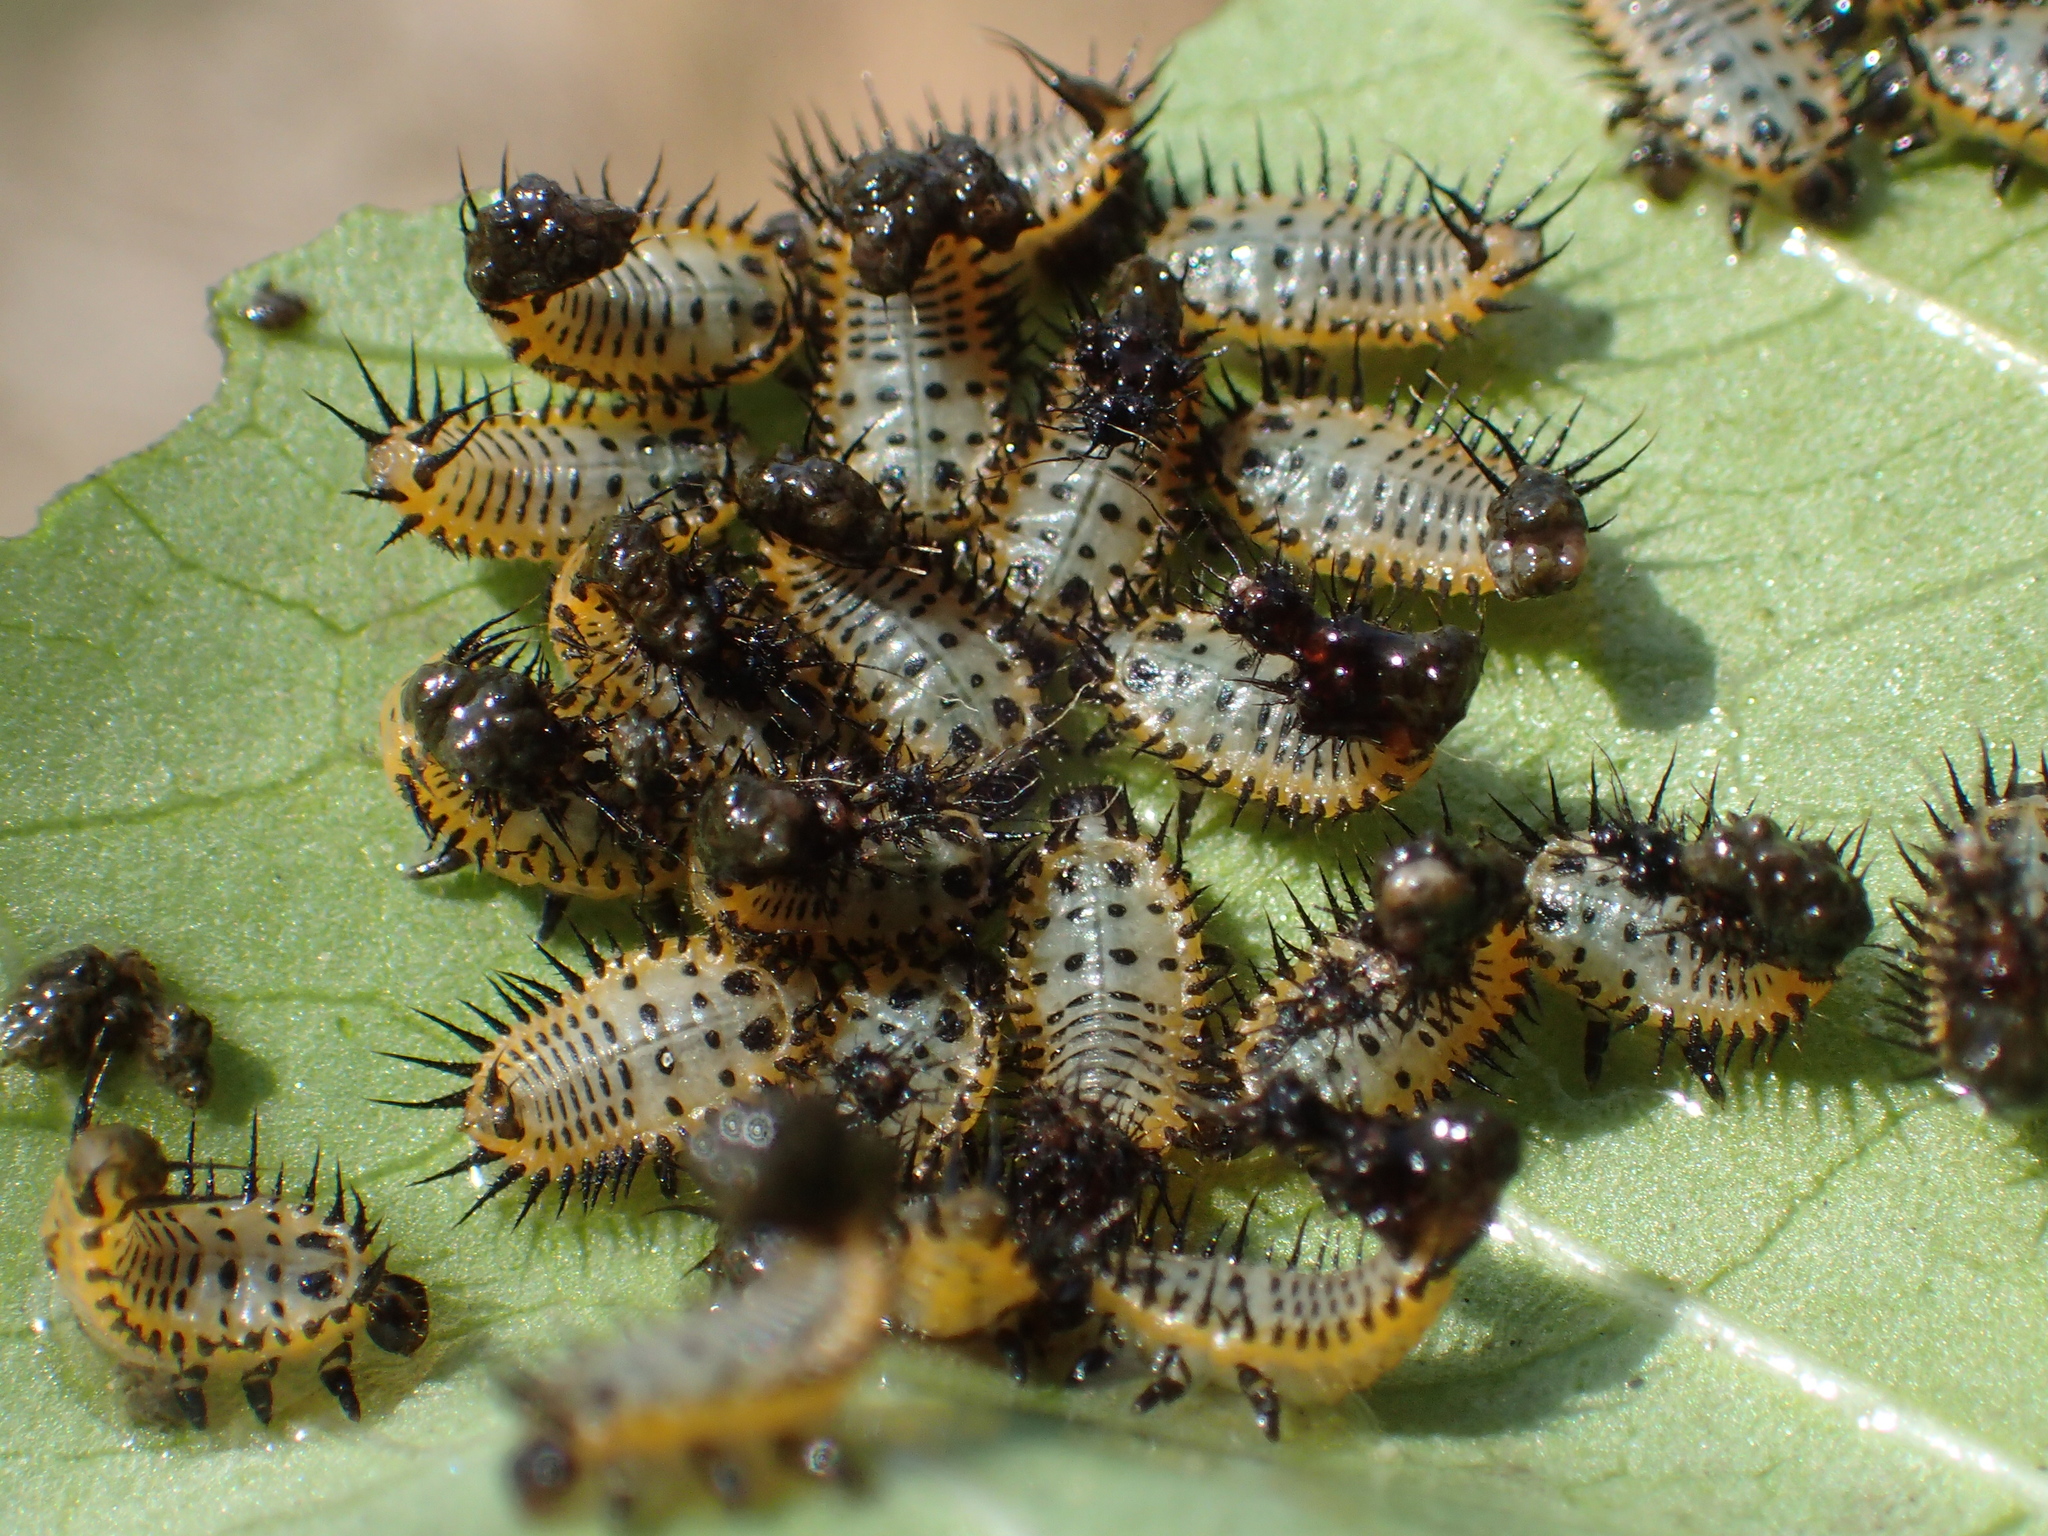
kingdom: Animalia
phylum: Arthropoda
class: Insecta
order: Coleoptera
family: Chrysomelidae
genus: Aspidimorpha
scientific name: Aspidimorpha miliaris
